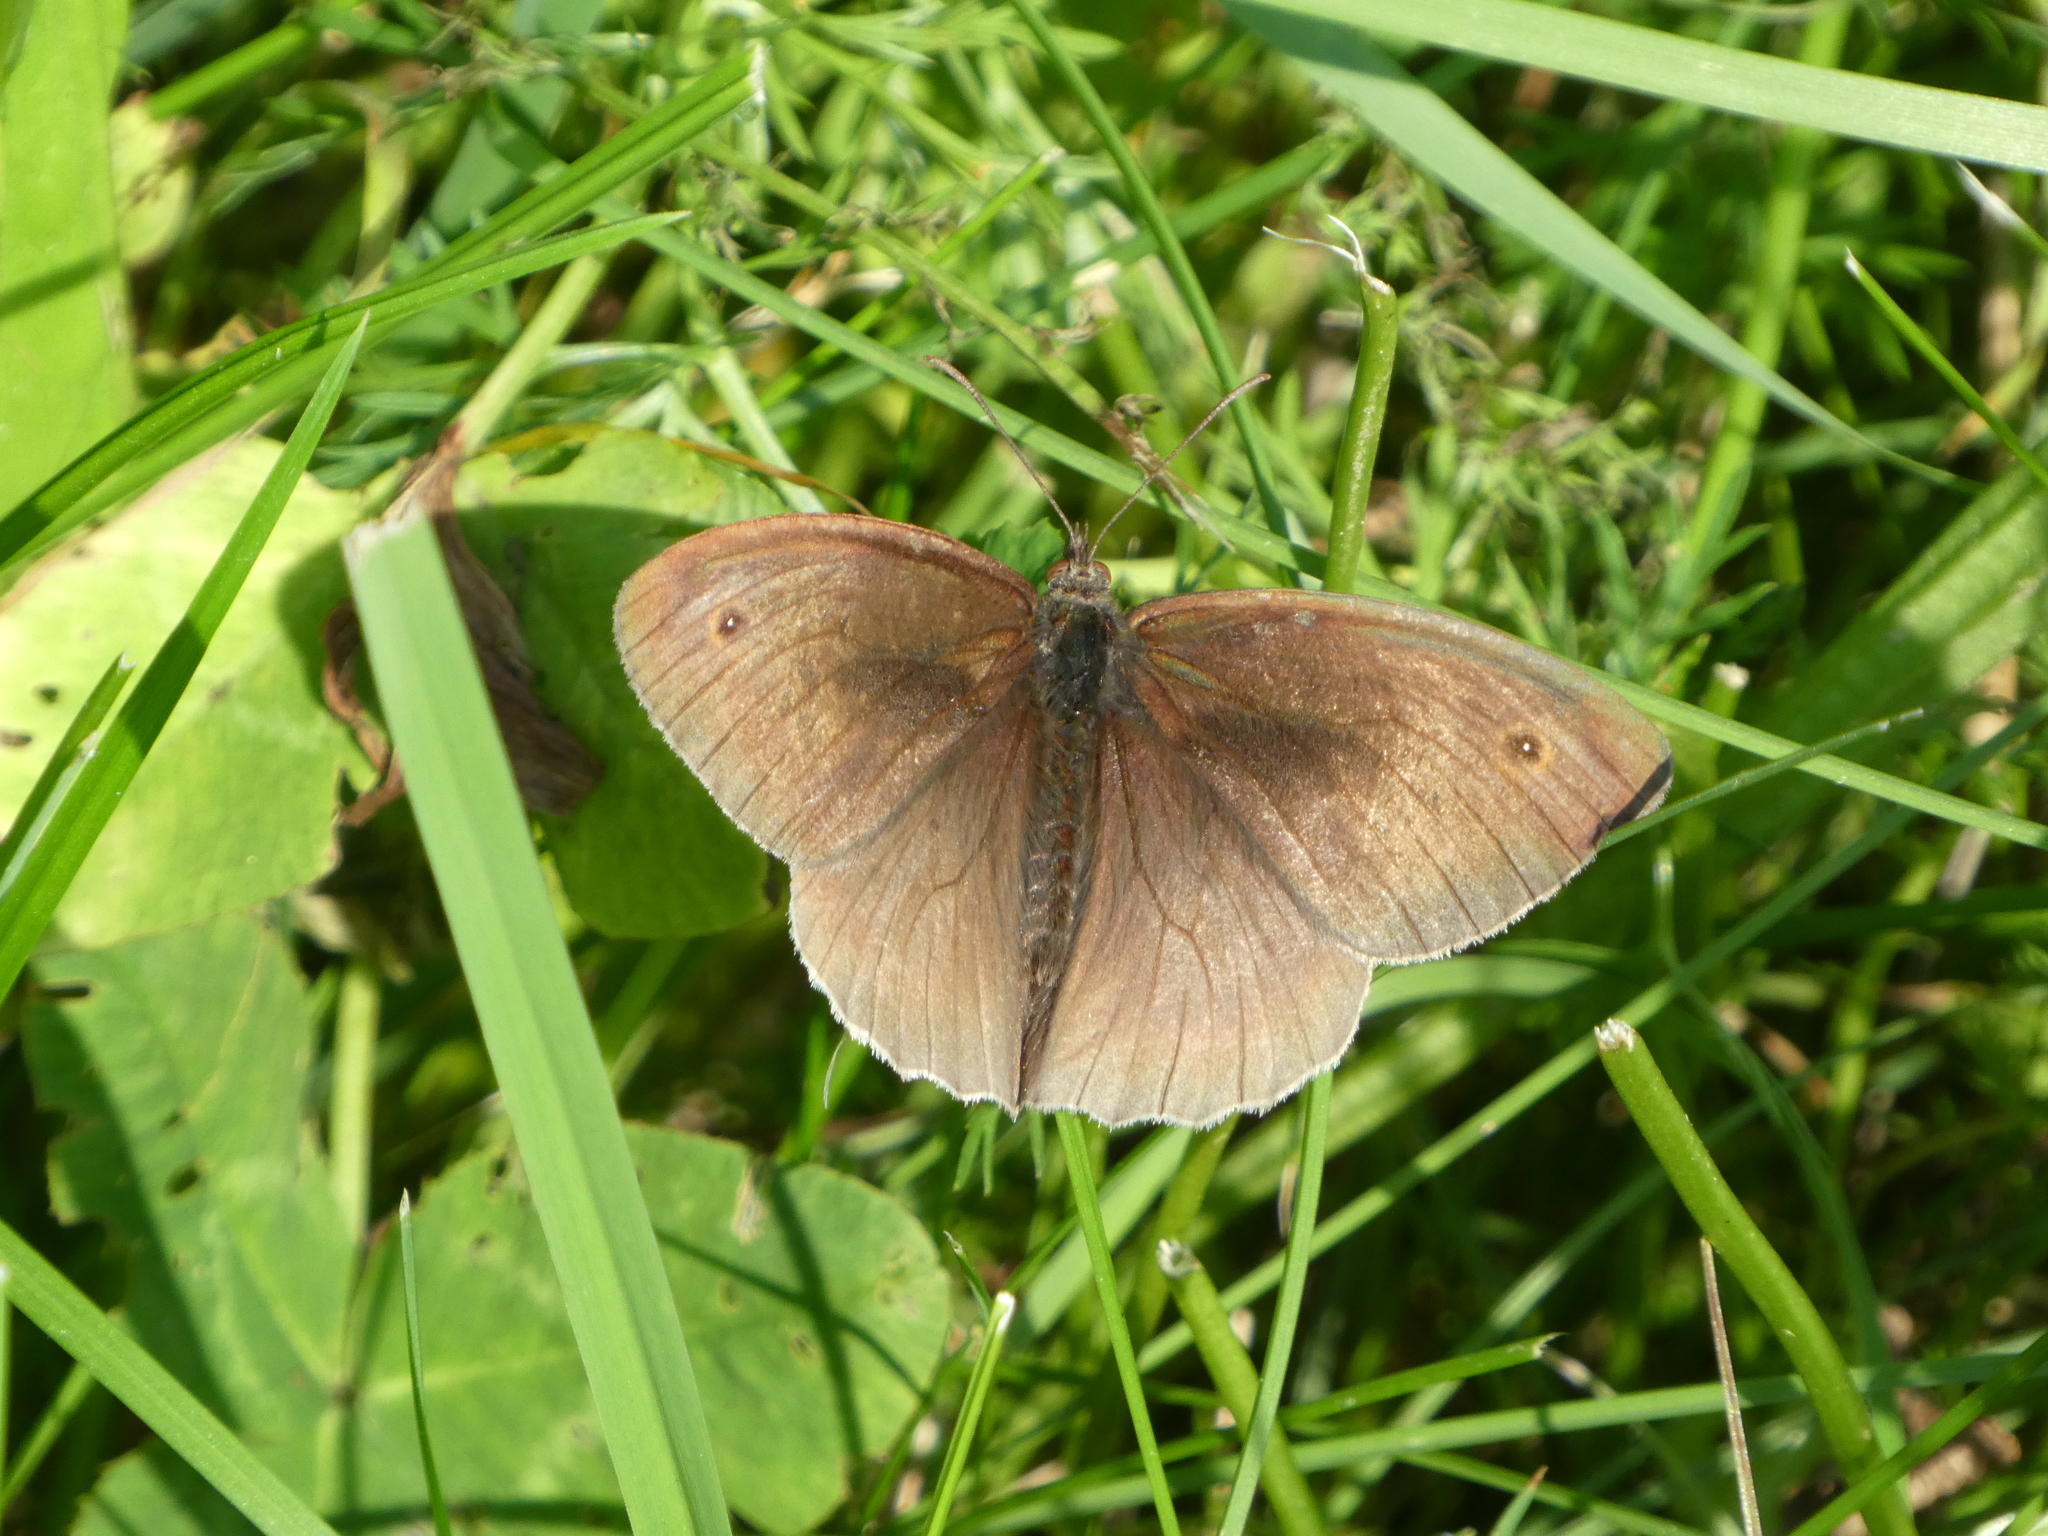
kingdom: Animalia
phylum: Arthropoda
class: Insecta
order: Lepidoptera
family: Nymphalidae
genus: Maniola
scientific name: Maniola jurtina
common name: Meadow brown
